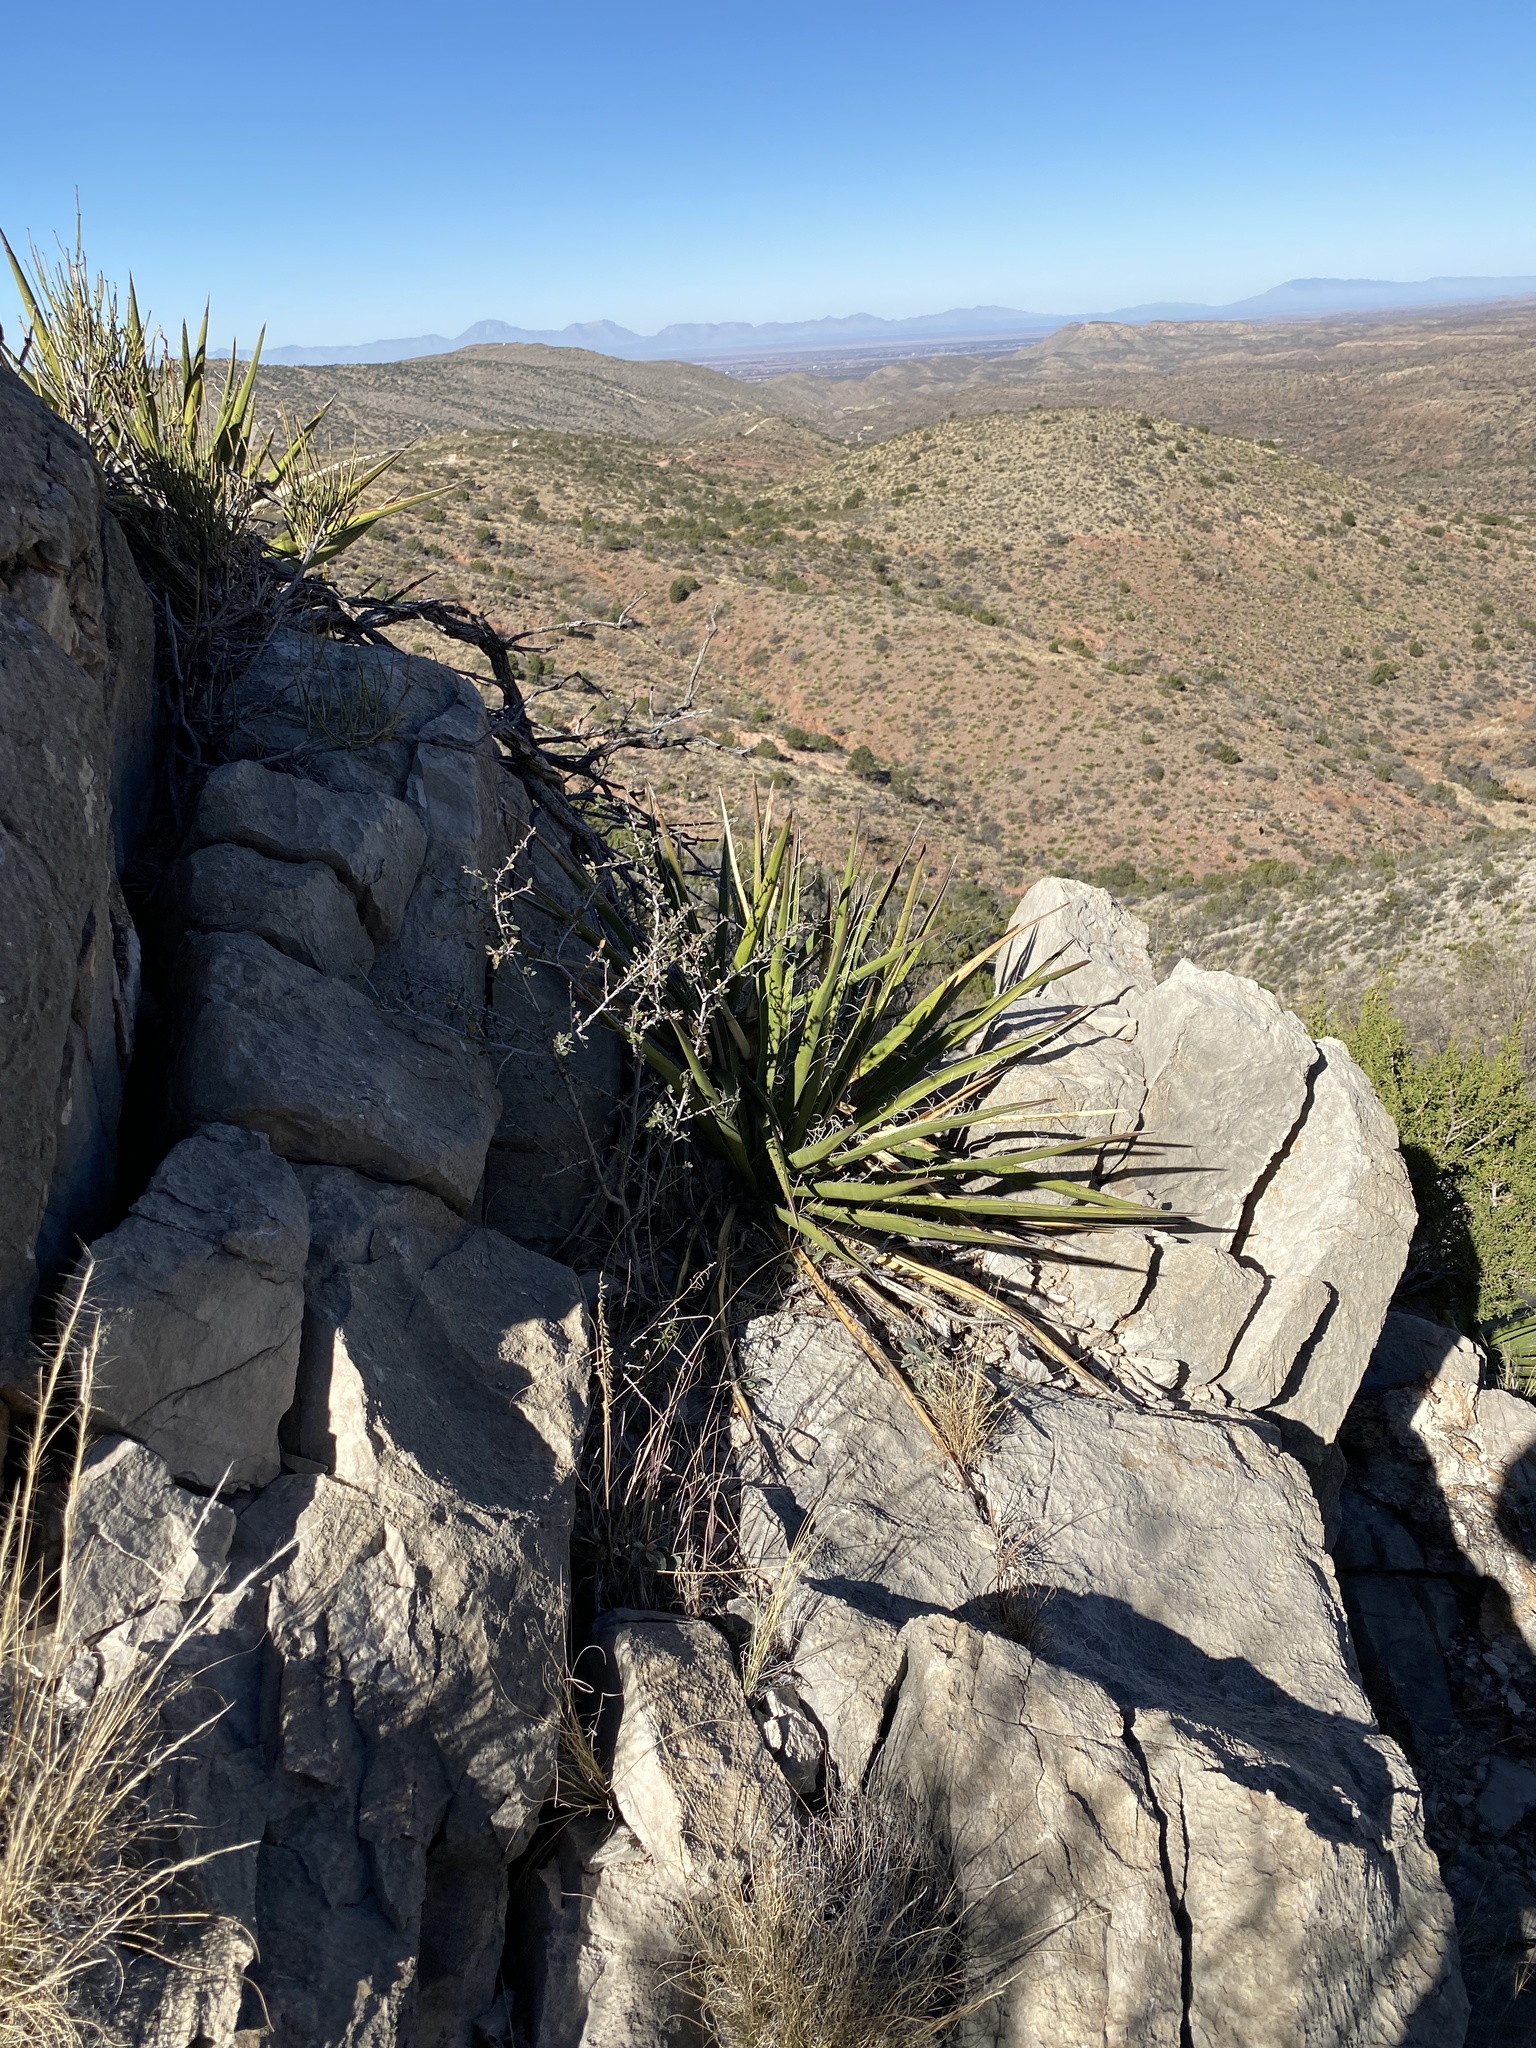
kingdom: Plantae
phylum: Tracheophyta
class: Liliopsida
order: Asparagales
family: Asparagaceae
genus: Yucca
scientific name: Yucca baccata
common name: Banana yucca
